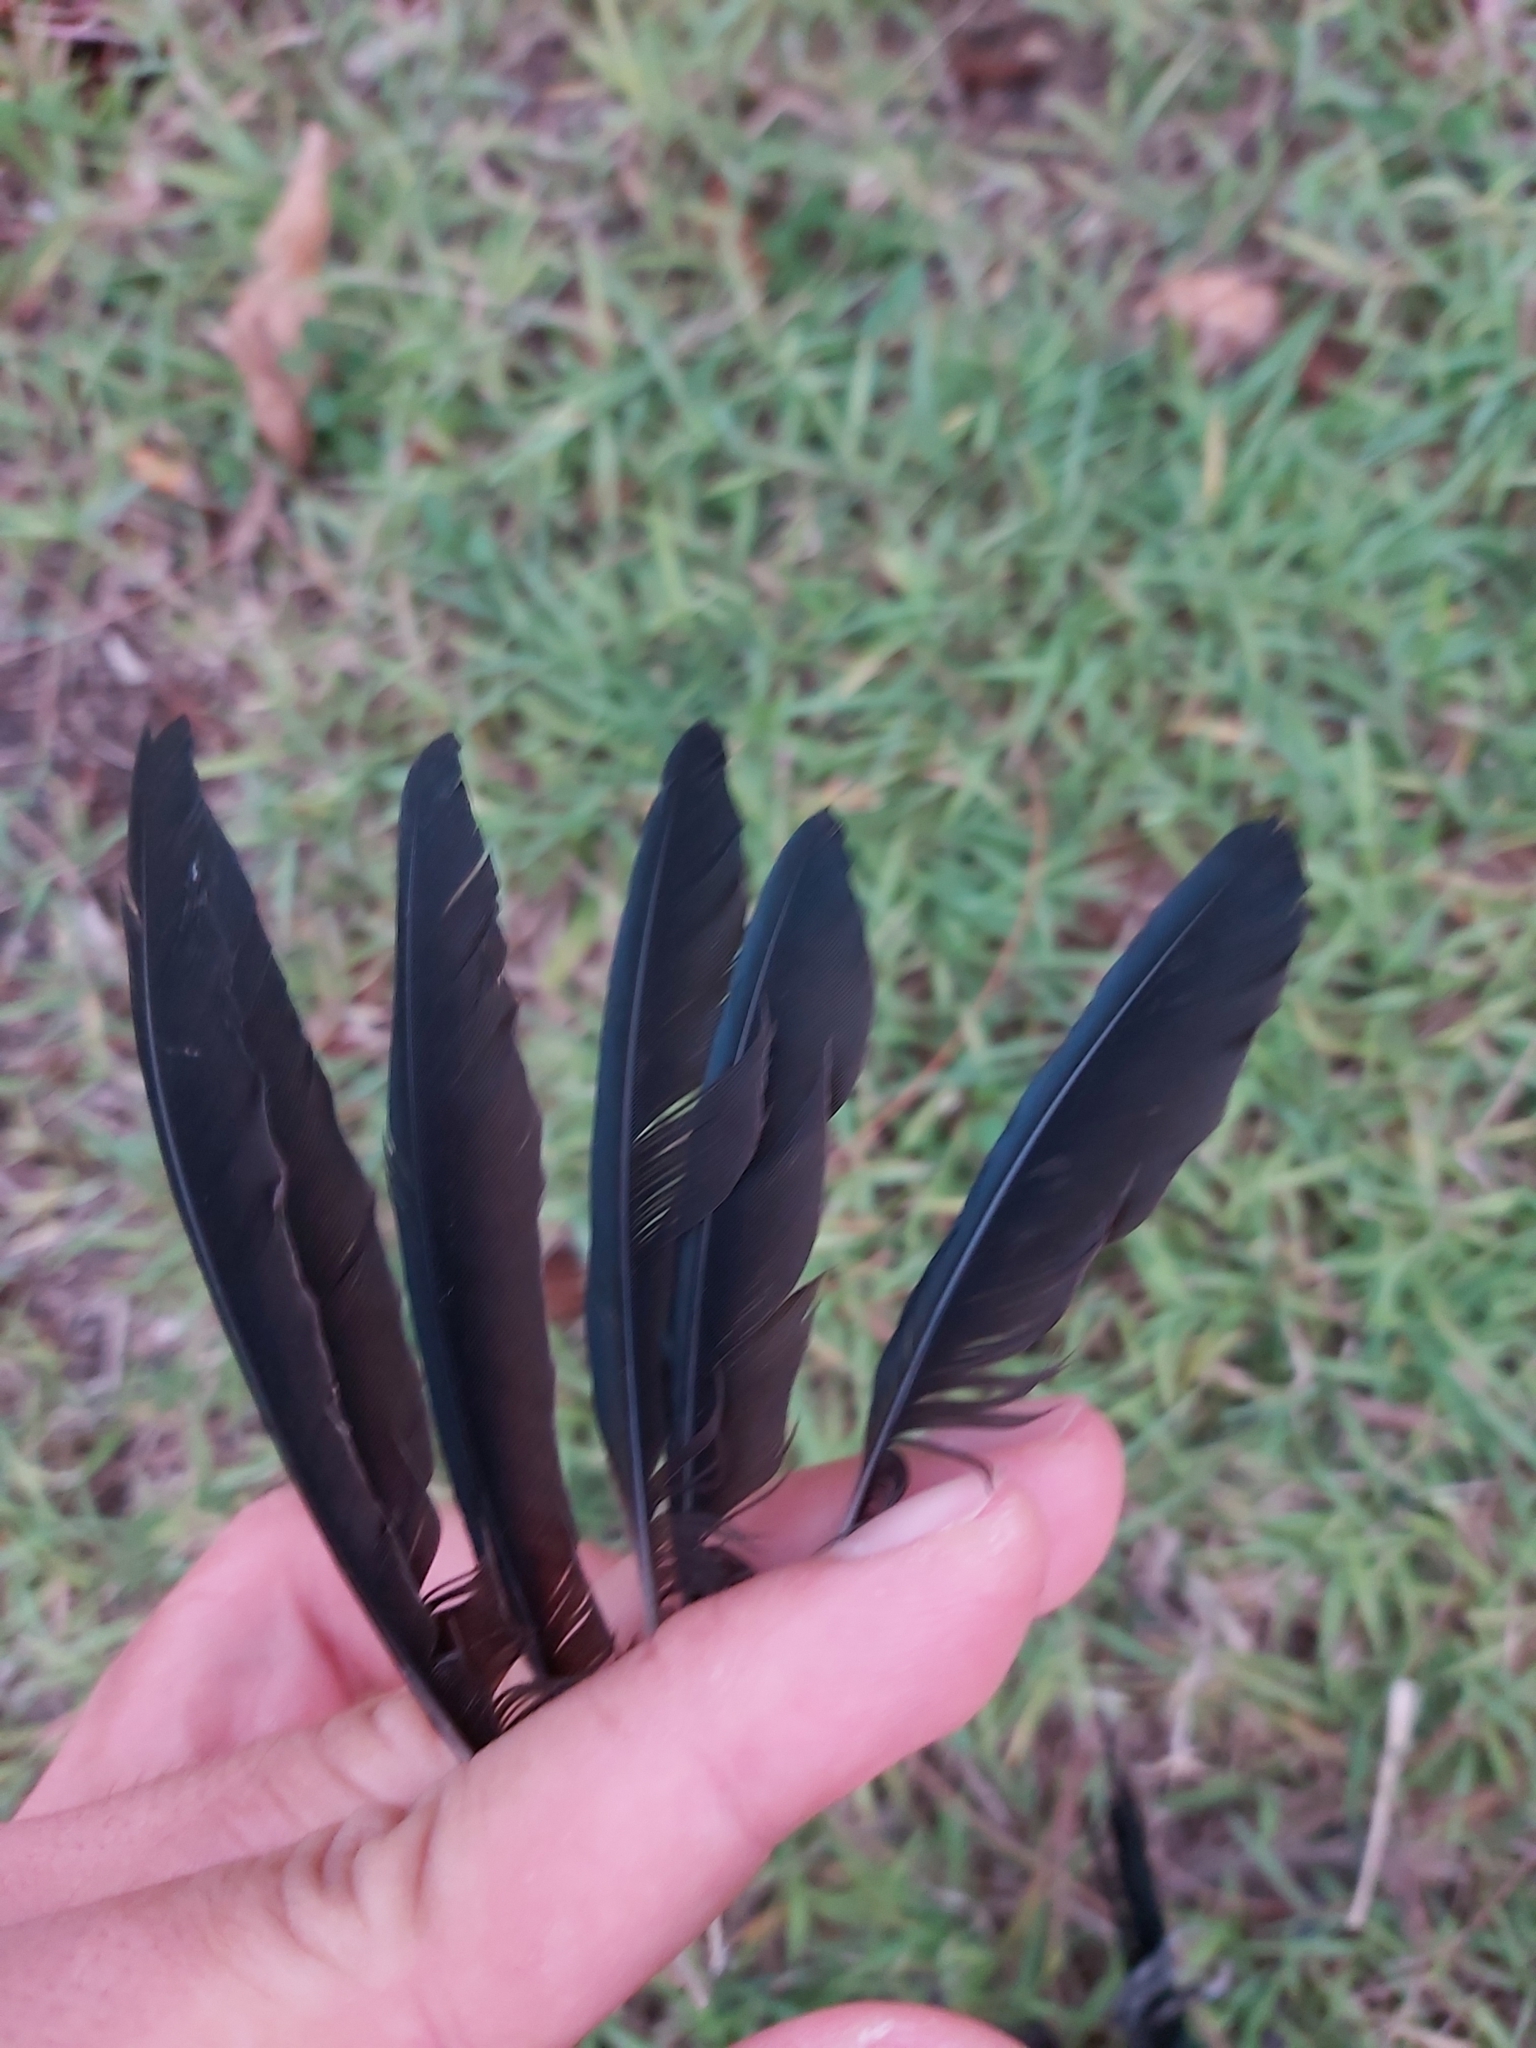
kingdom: Animalia
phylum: Chordata
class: Aves
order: Passeriformes
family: Sturnidae
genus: Aplonis
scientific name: Aplonis metallica
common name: Metallic starling
